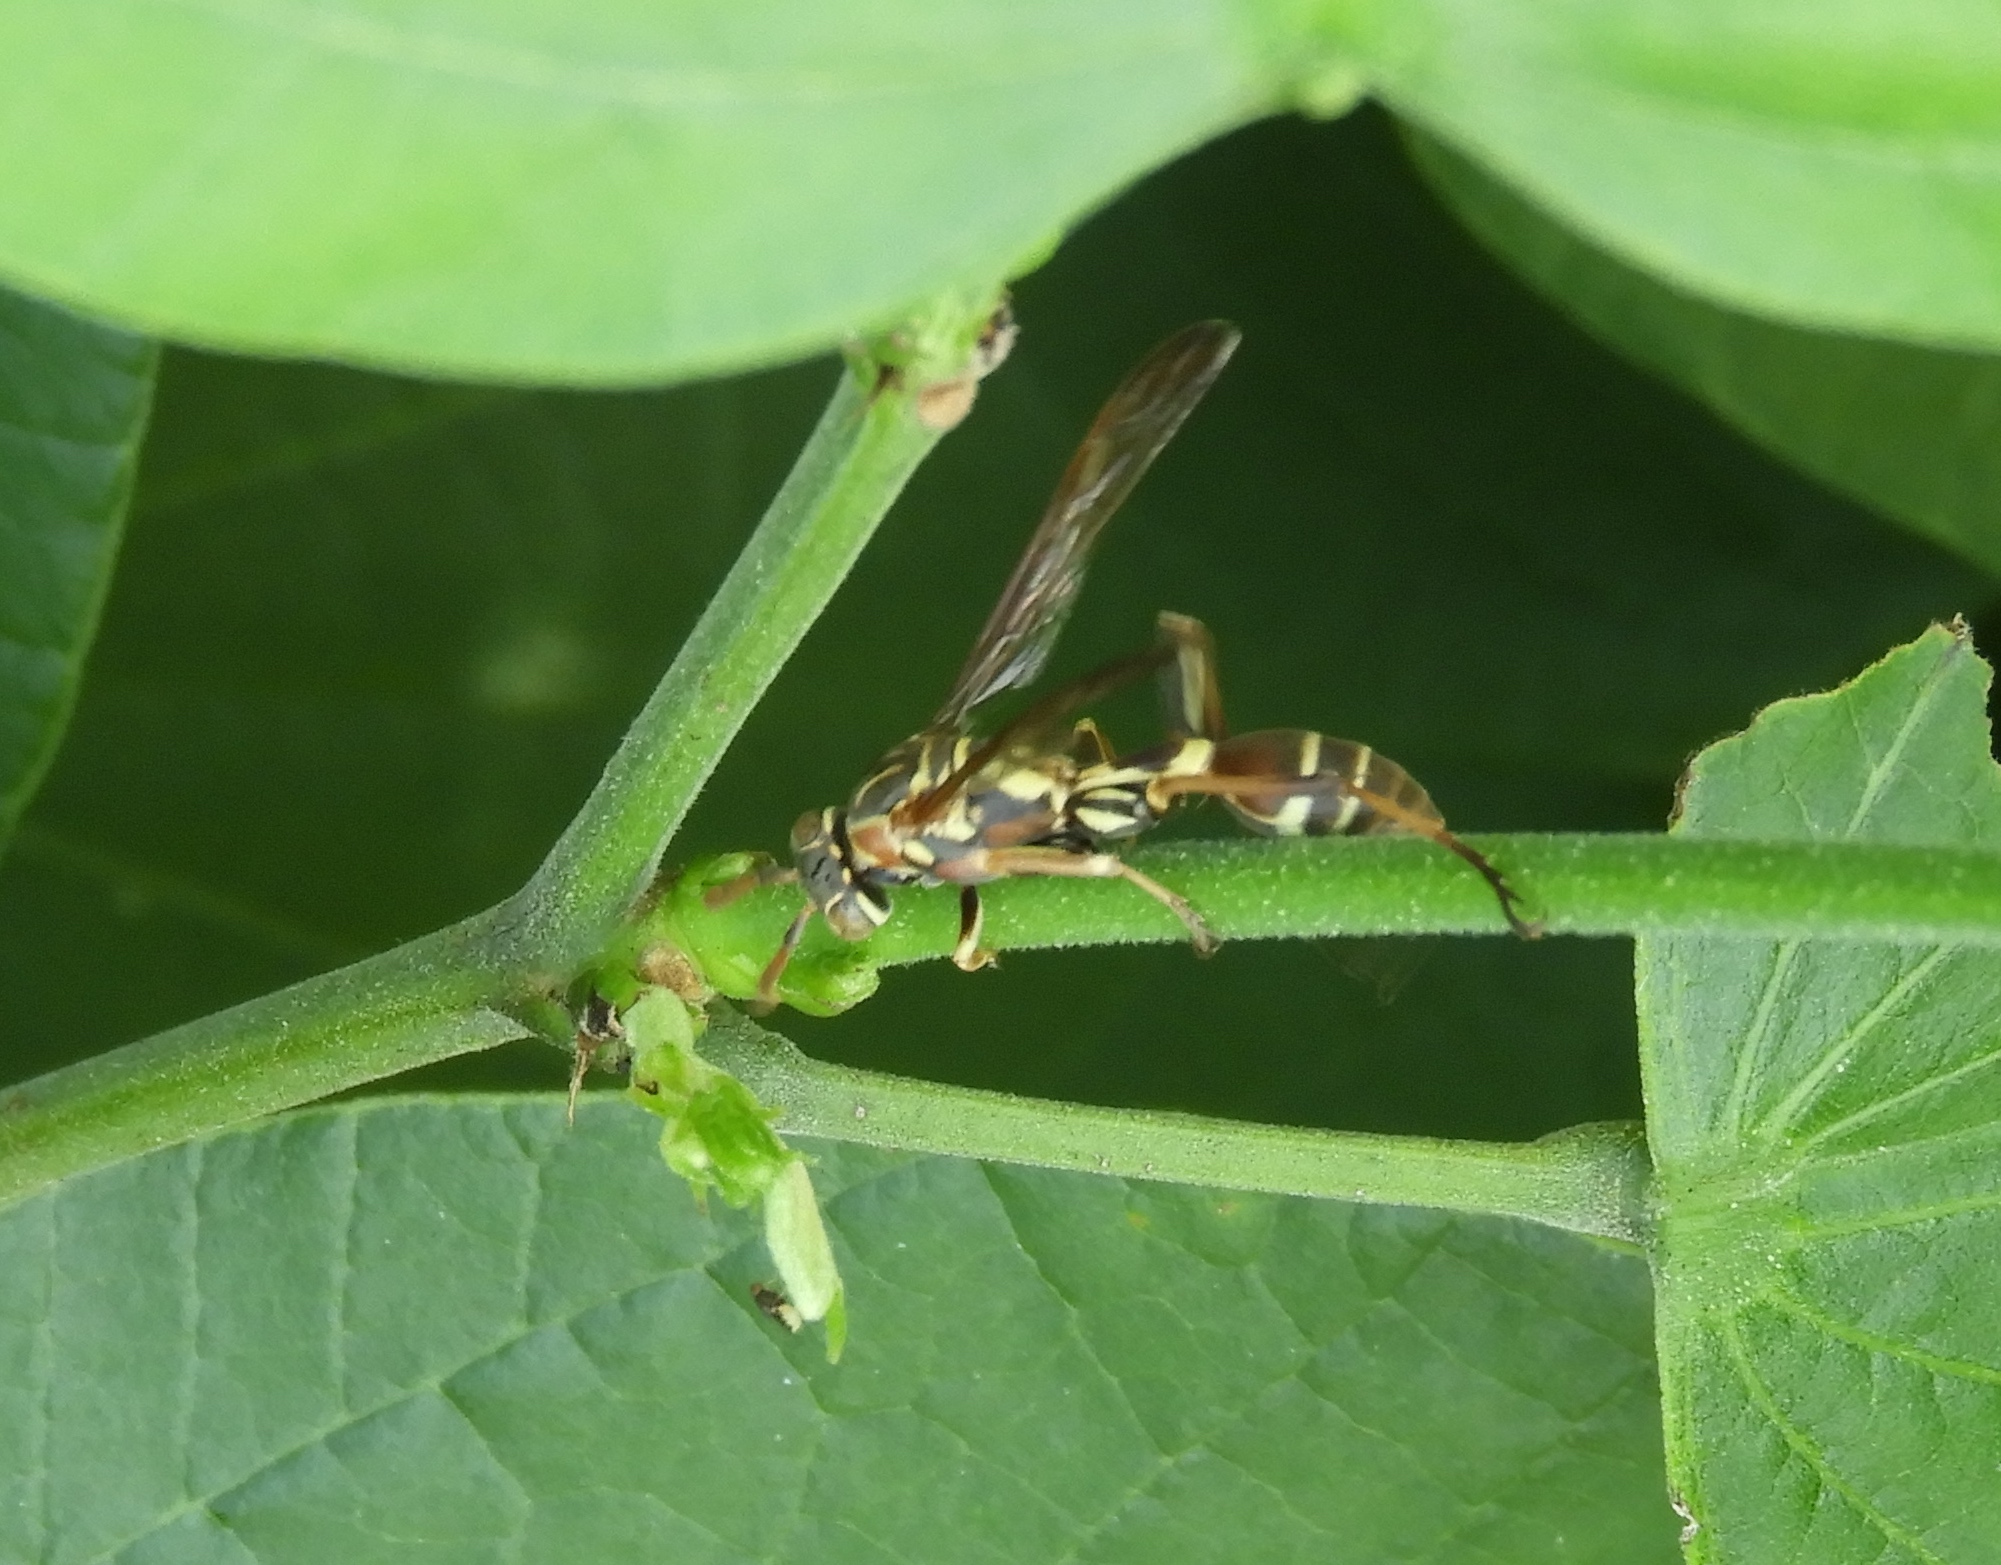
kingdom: Animalia
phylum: Arthropoda
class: Insecta
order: Hymenoptera
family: Vespidae
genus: Mischocyttarus
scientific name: Mischocyttarus mexicanus
